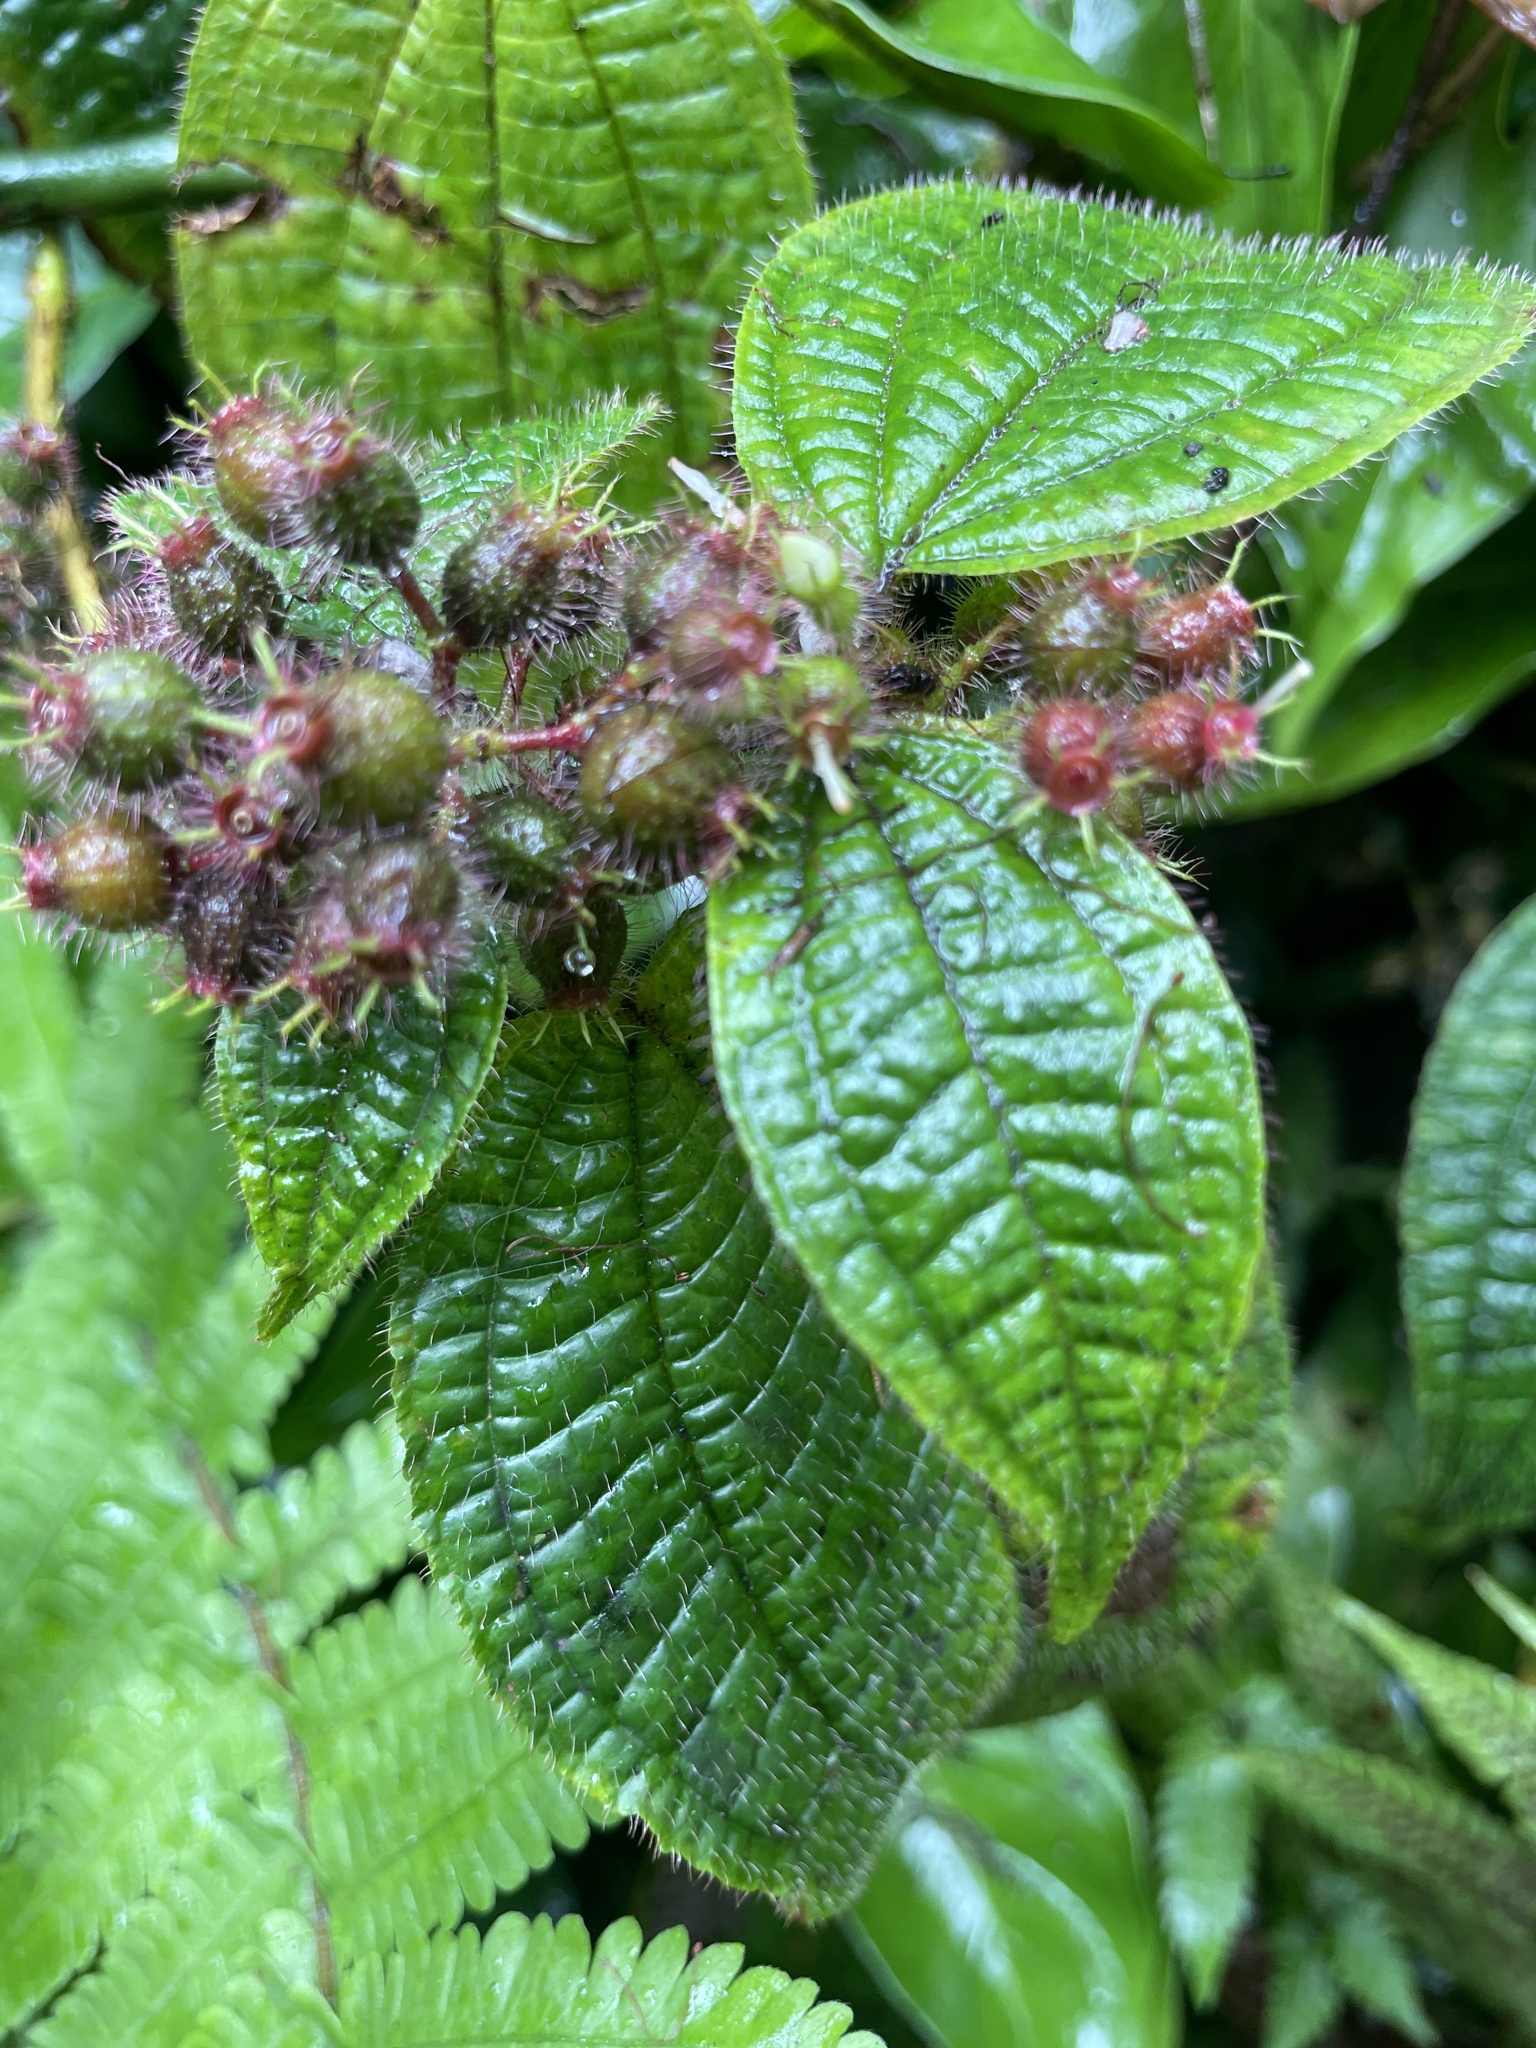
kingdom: Plantae
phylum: Tracheophyta
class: Magnoliopsida
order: Myrtales
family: Melastomataceae
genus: Miconia
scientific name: Miconia crenata
